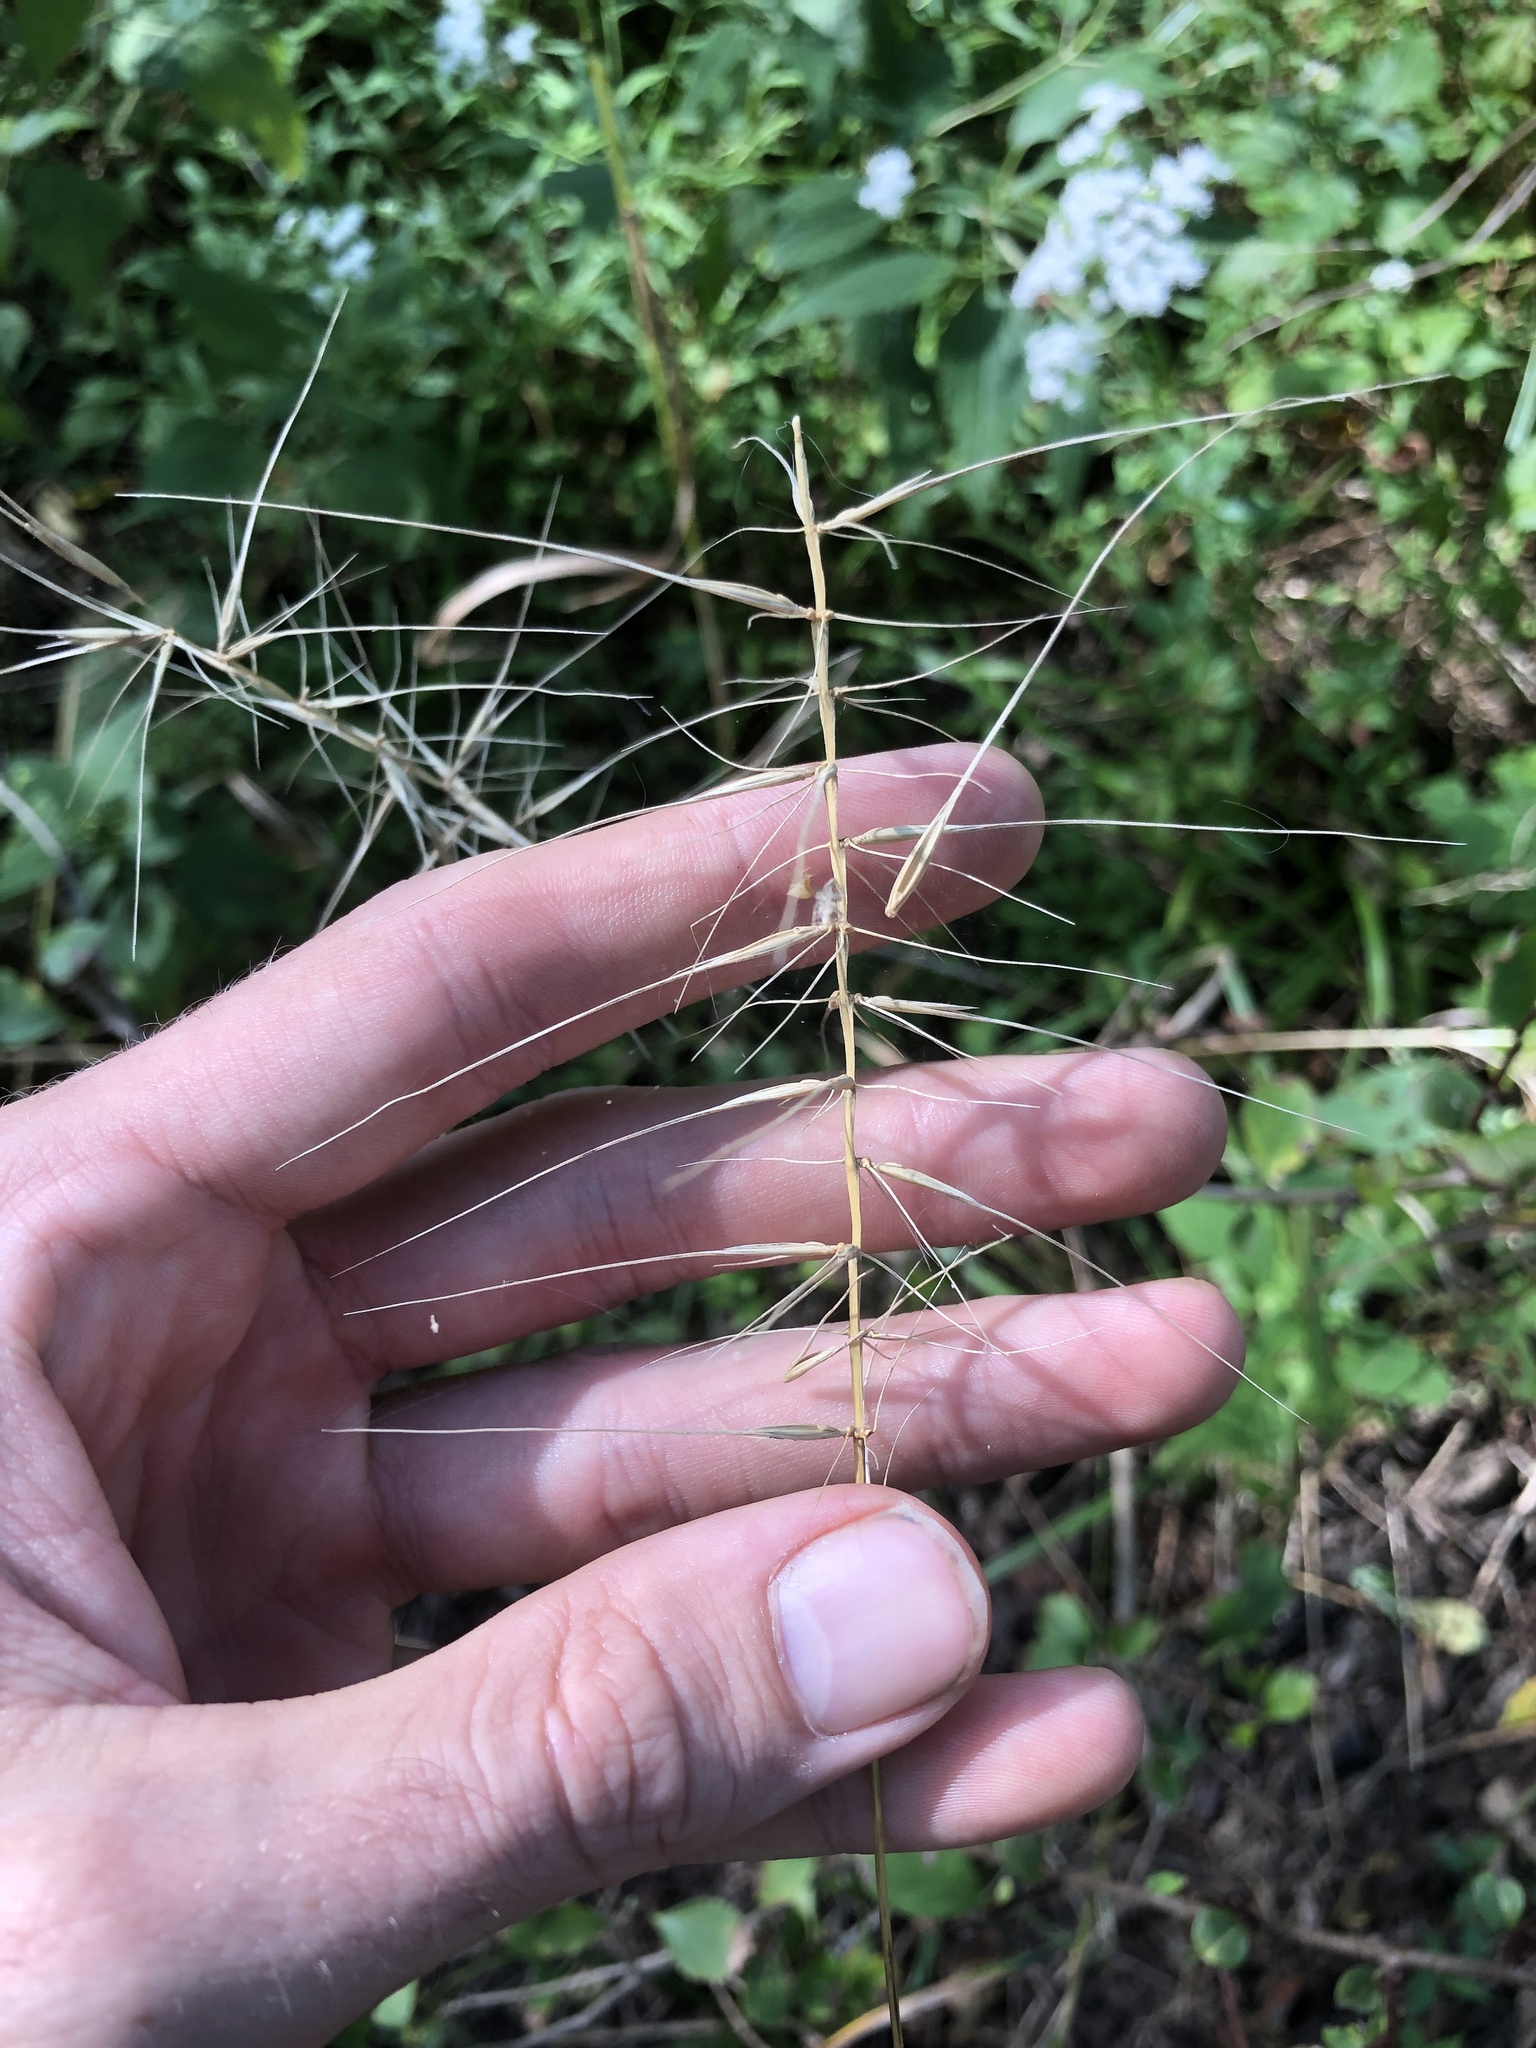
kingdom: Plantae
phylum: Tracheophyta
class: Liliopsida
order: Poales
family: Poaceae
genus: Elymus
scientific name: Elymus hystrix
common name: Bottlebrush grass
